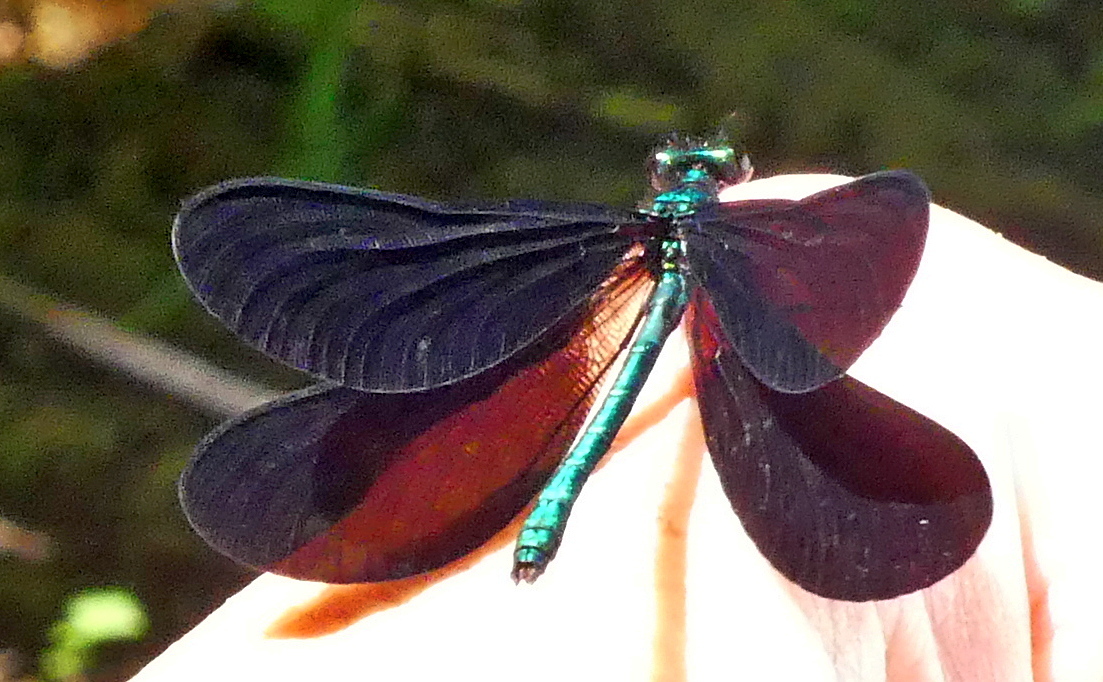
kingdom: Animalia
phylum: Arthropoda
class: Insecta
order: Odonata
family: Calopterygidae
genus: Calopteryx
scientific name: Calopteryx maculata
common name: Ebony jewelwing
